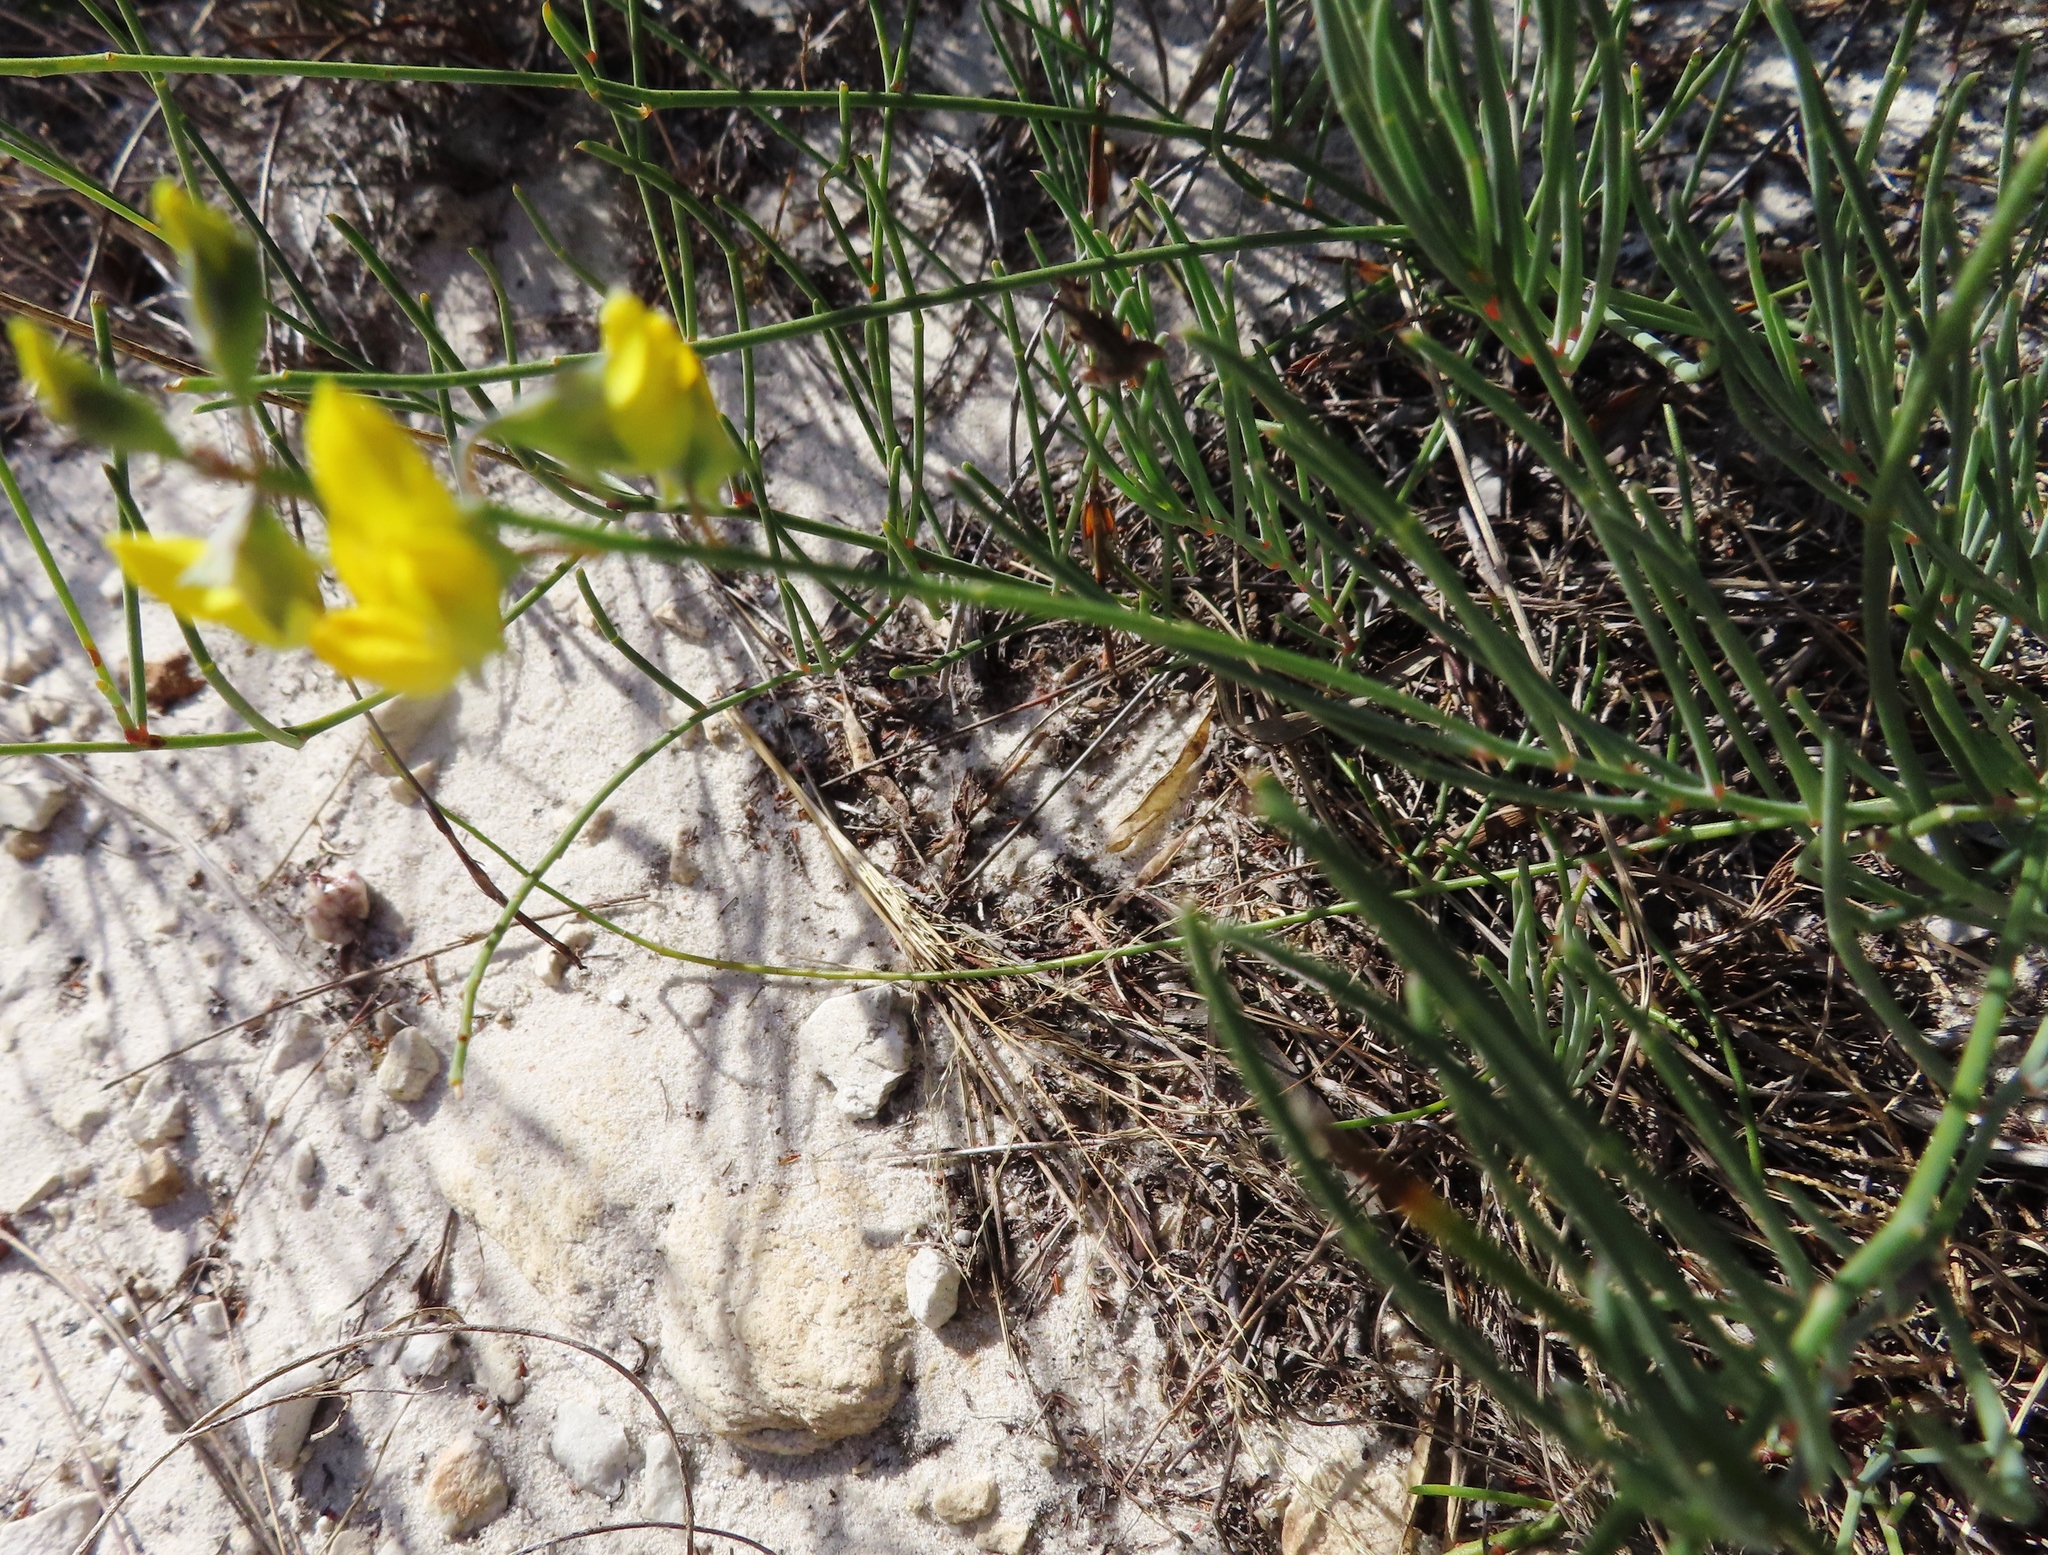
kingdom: Plantae
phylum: Tracheophyta
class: Magnoliopsida
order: Fabales
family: Fabaceae
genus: Lebeckia
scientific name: Lebeckia contaminata
